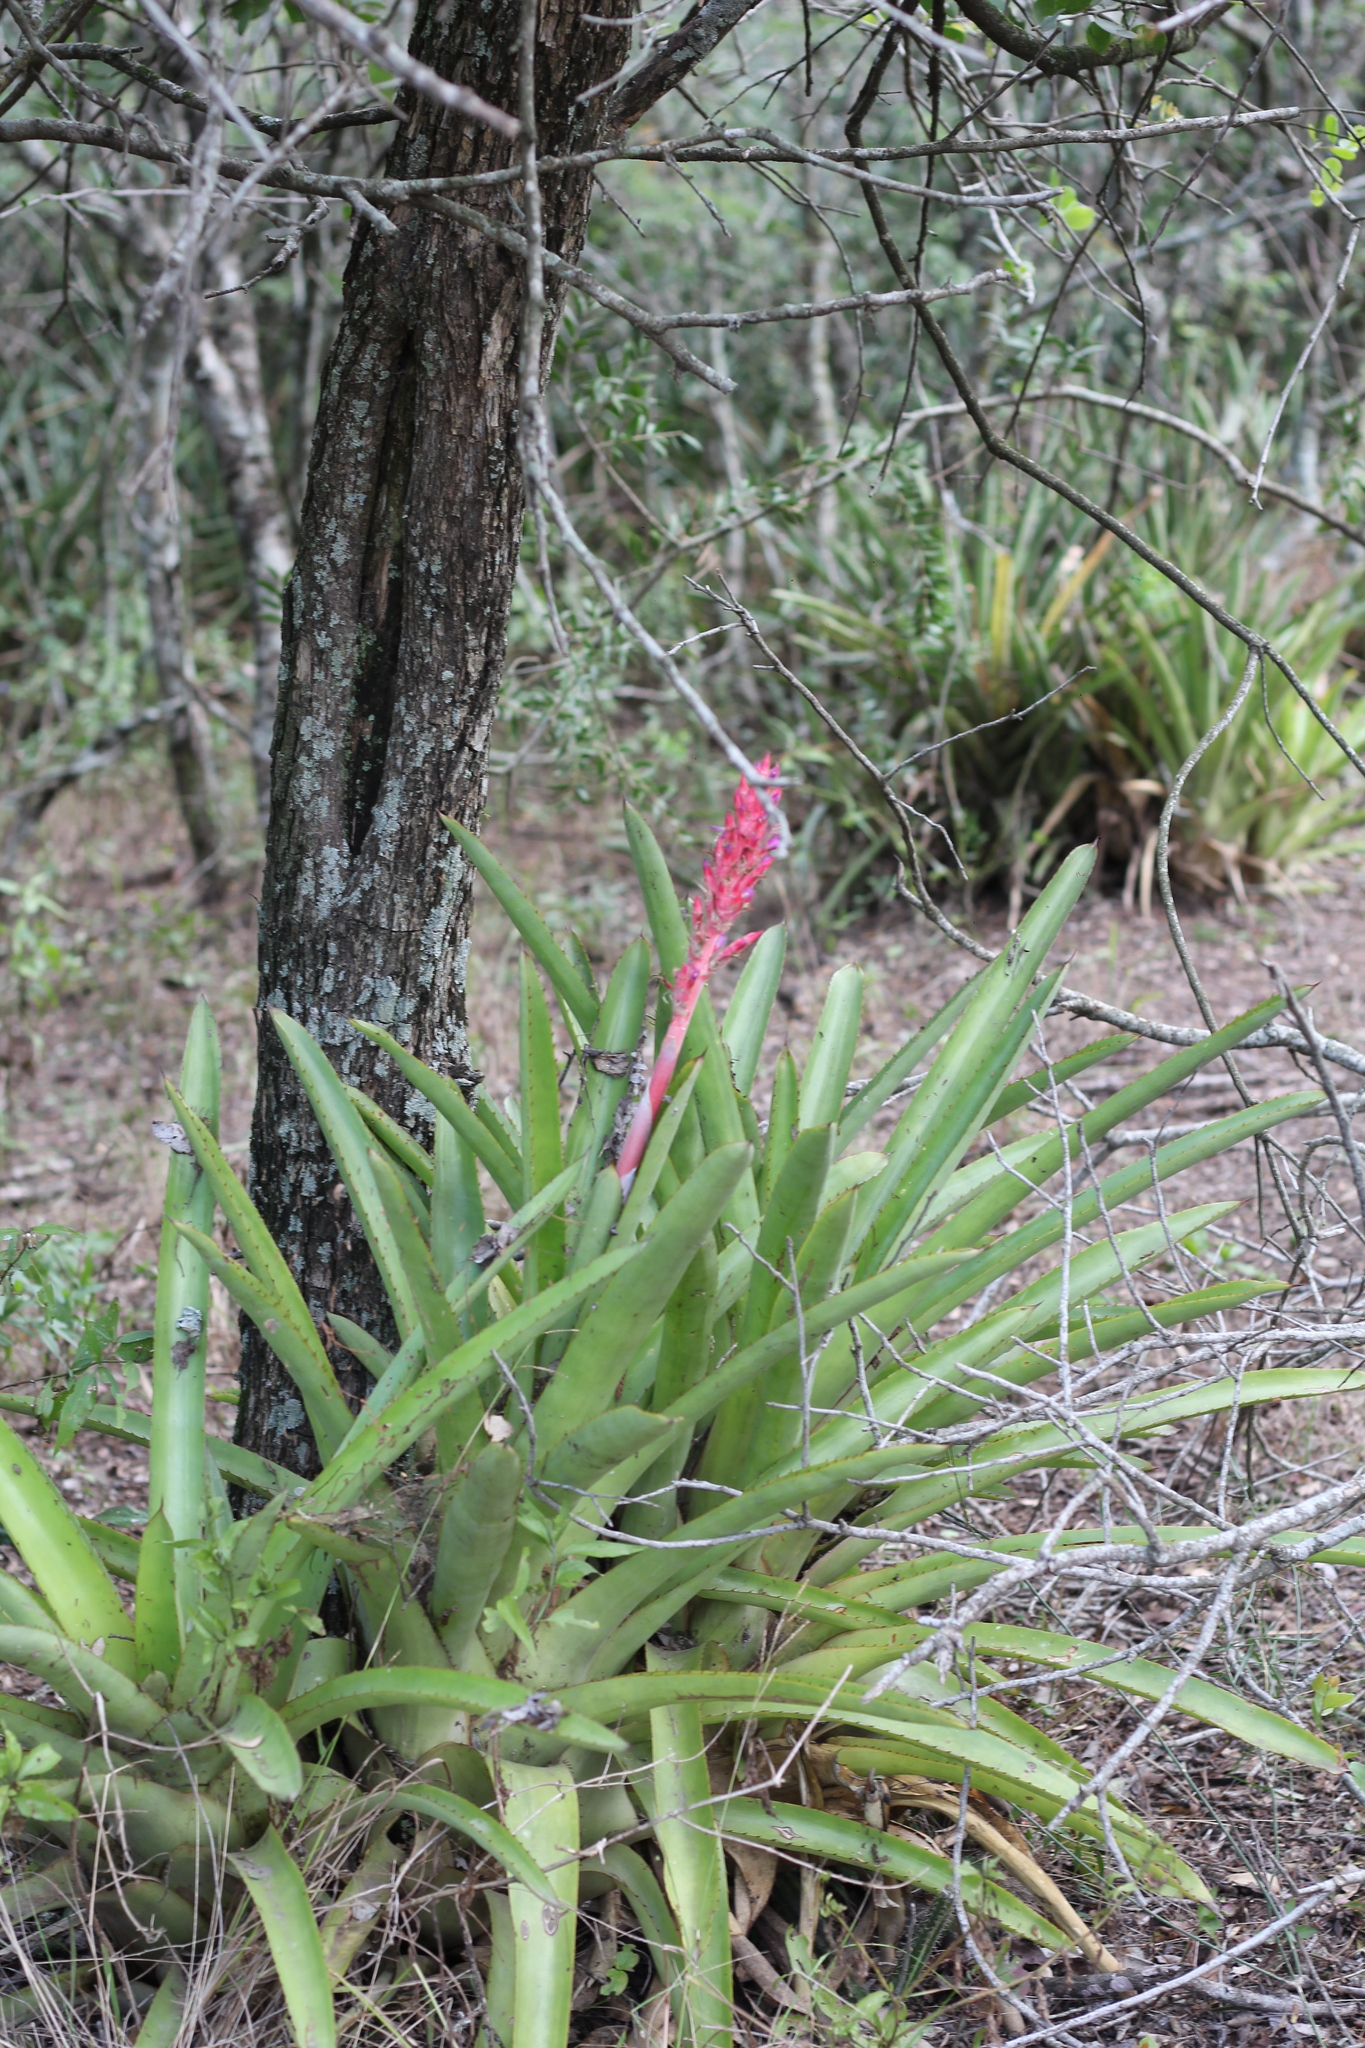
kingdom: Plantae
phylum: Tracheophyta
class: Liliopsida
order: Poales
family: Bromeliaceae
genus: Aechmea
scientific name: Aechmea distichantha
